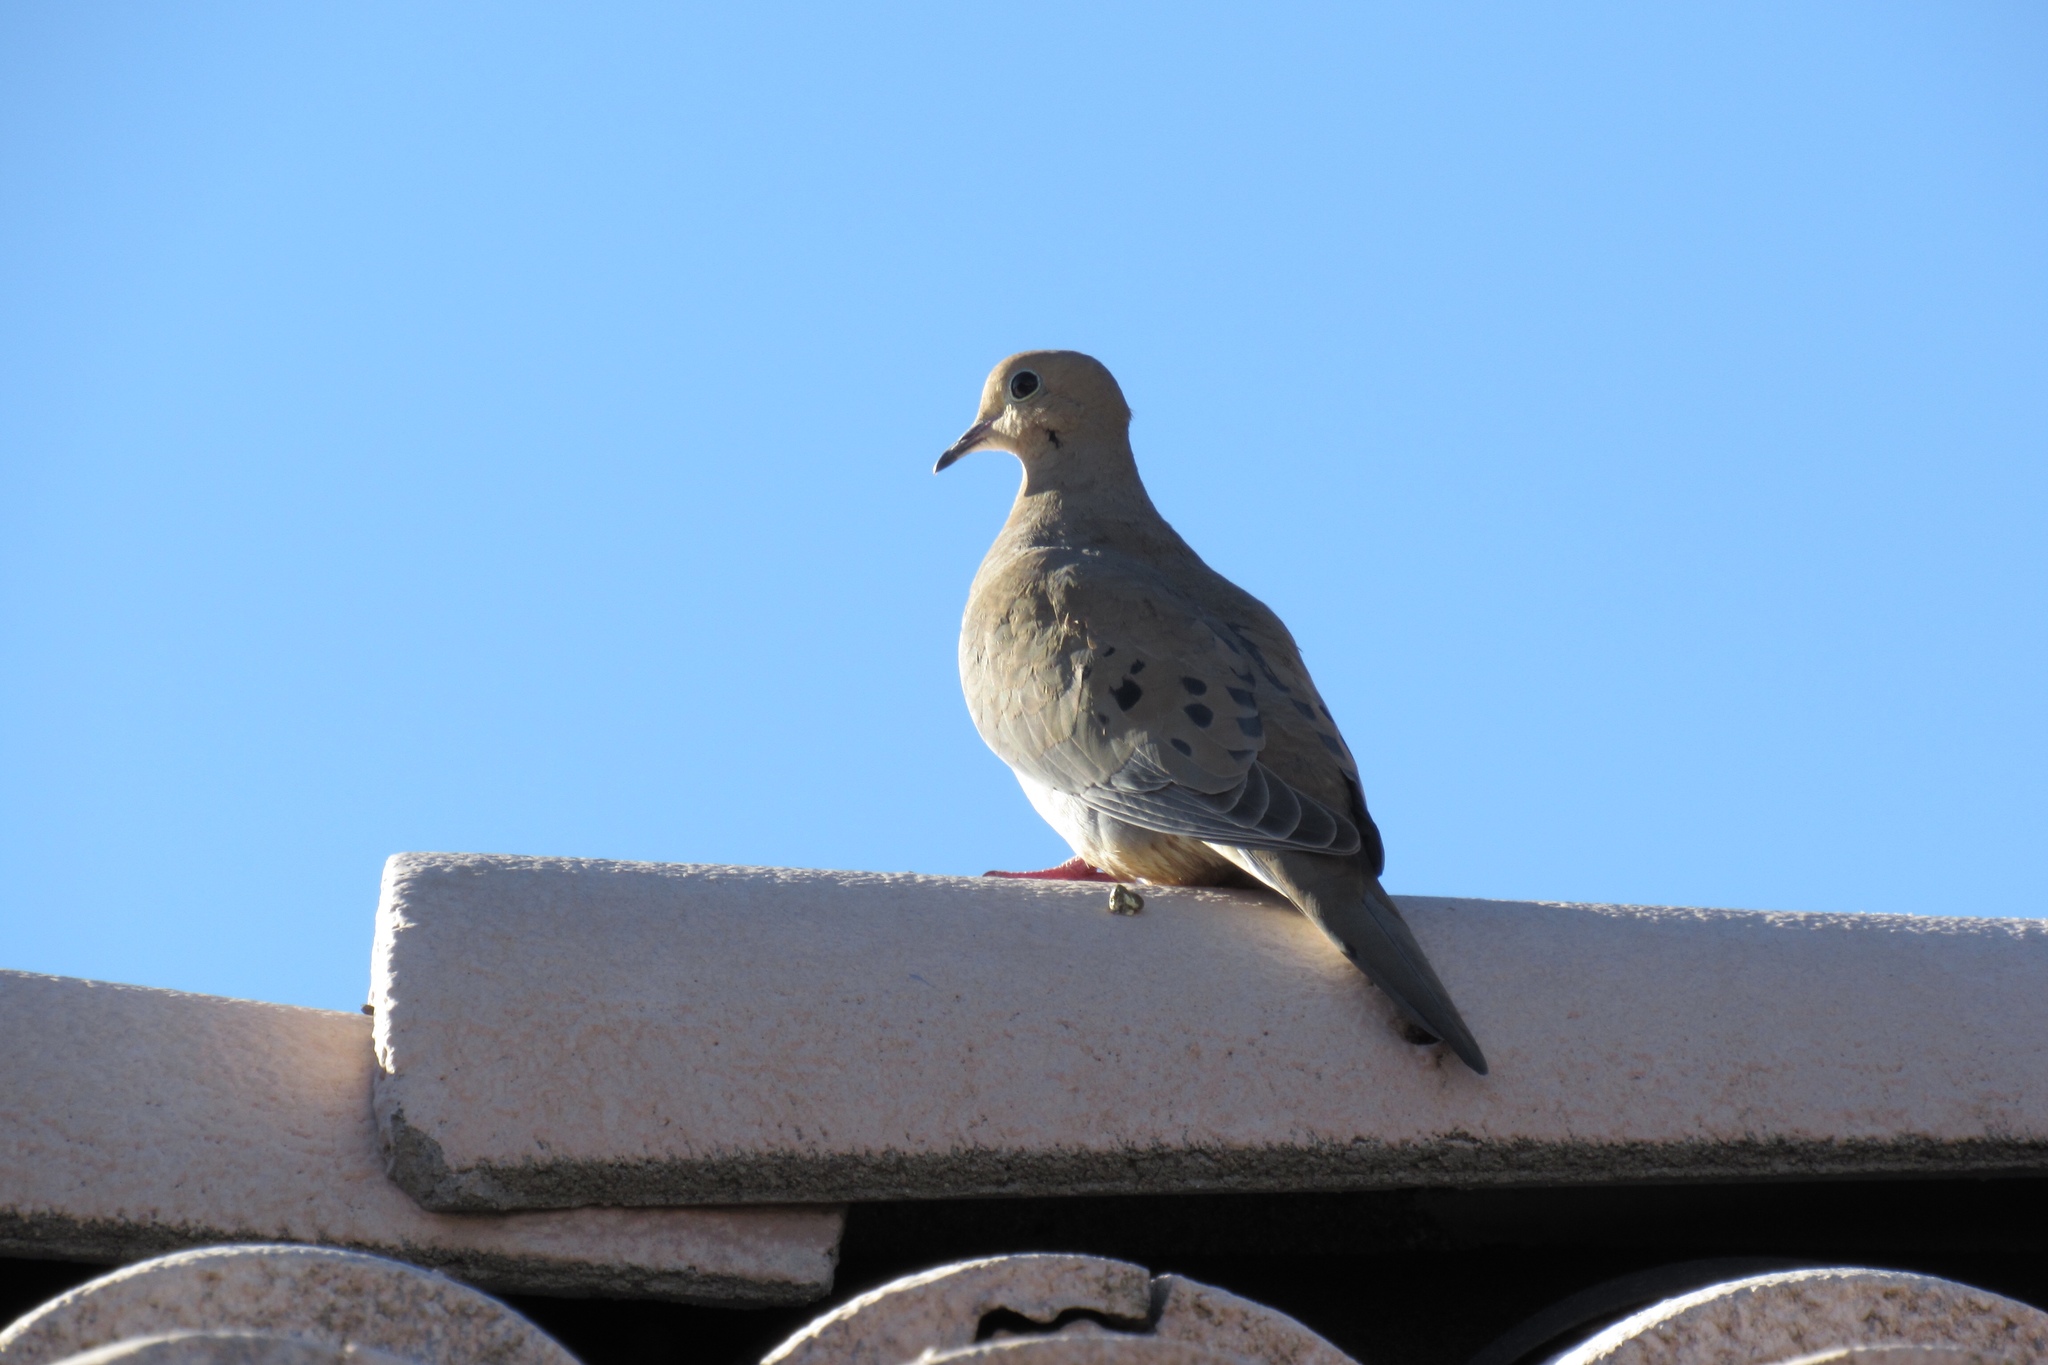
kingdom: Animalia
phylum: Chordata
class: Aves
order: Columbiformes
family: Columbidae
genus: Zenaida
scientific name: Zenaida macroura
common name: Mourning dove
